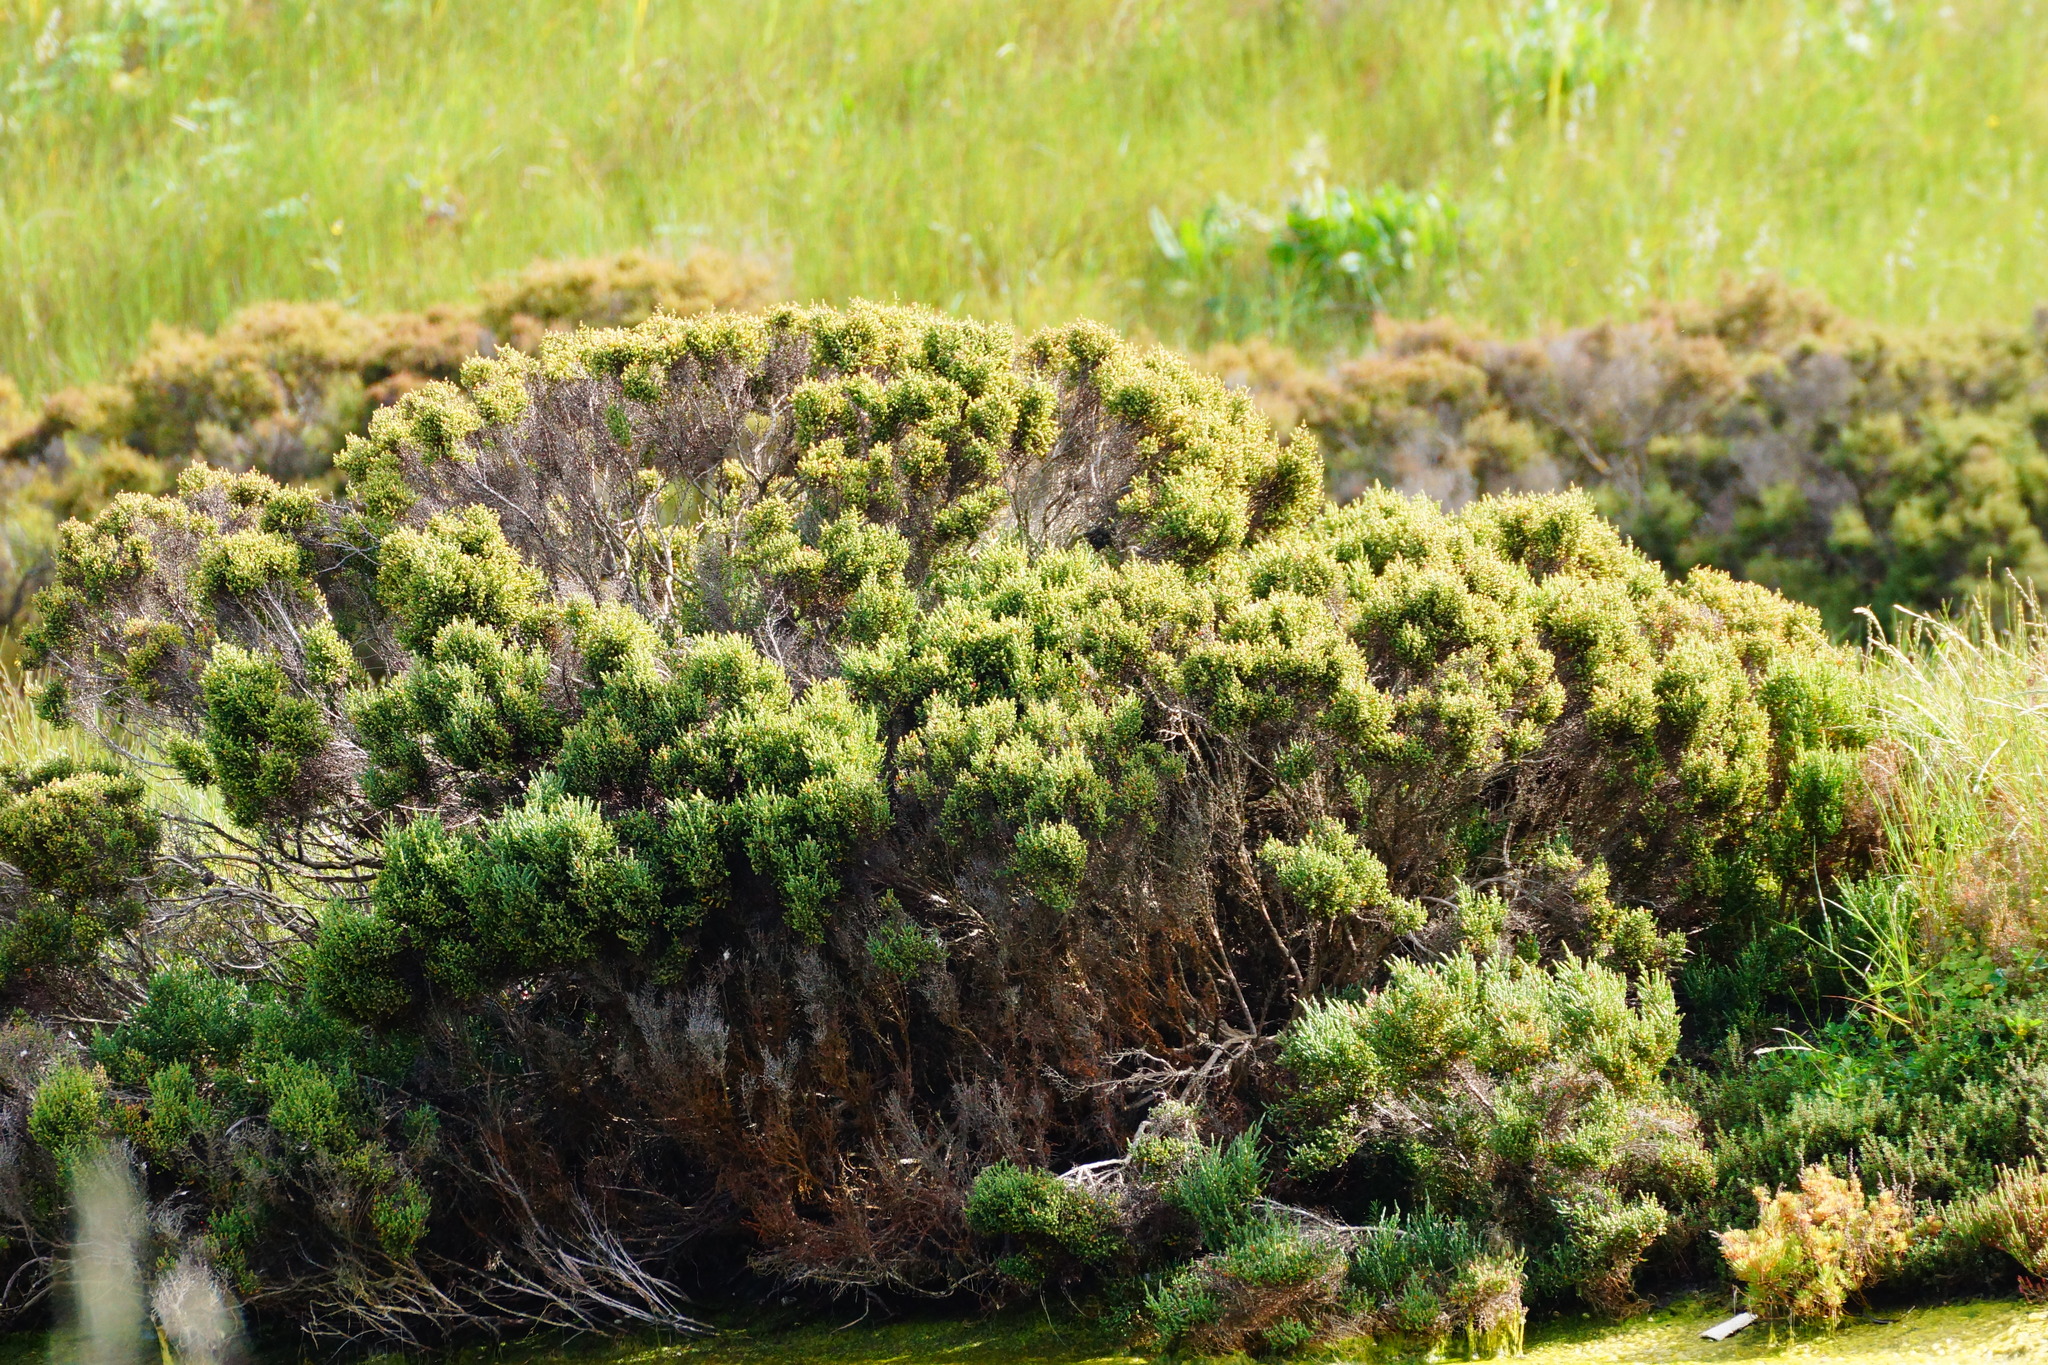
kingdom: Plantae
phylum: Tracheophyta
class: Magnoliopsida
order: Caryophyllales
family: Amaranthaceae
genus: Tecticornia
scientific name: Tecticornia arbuscula
